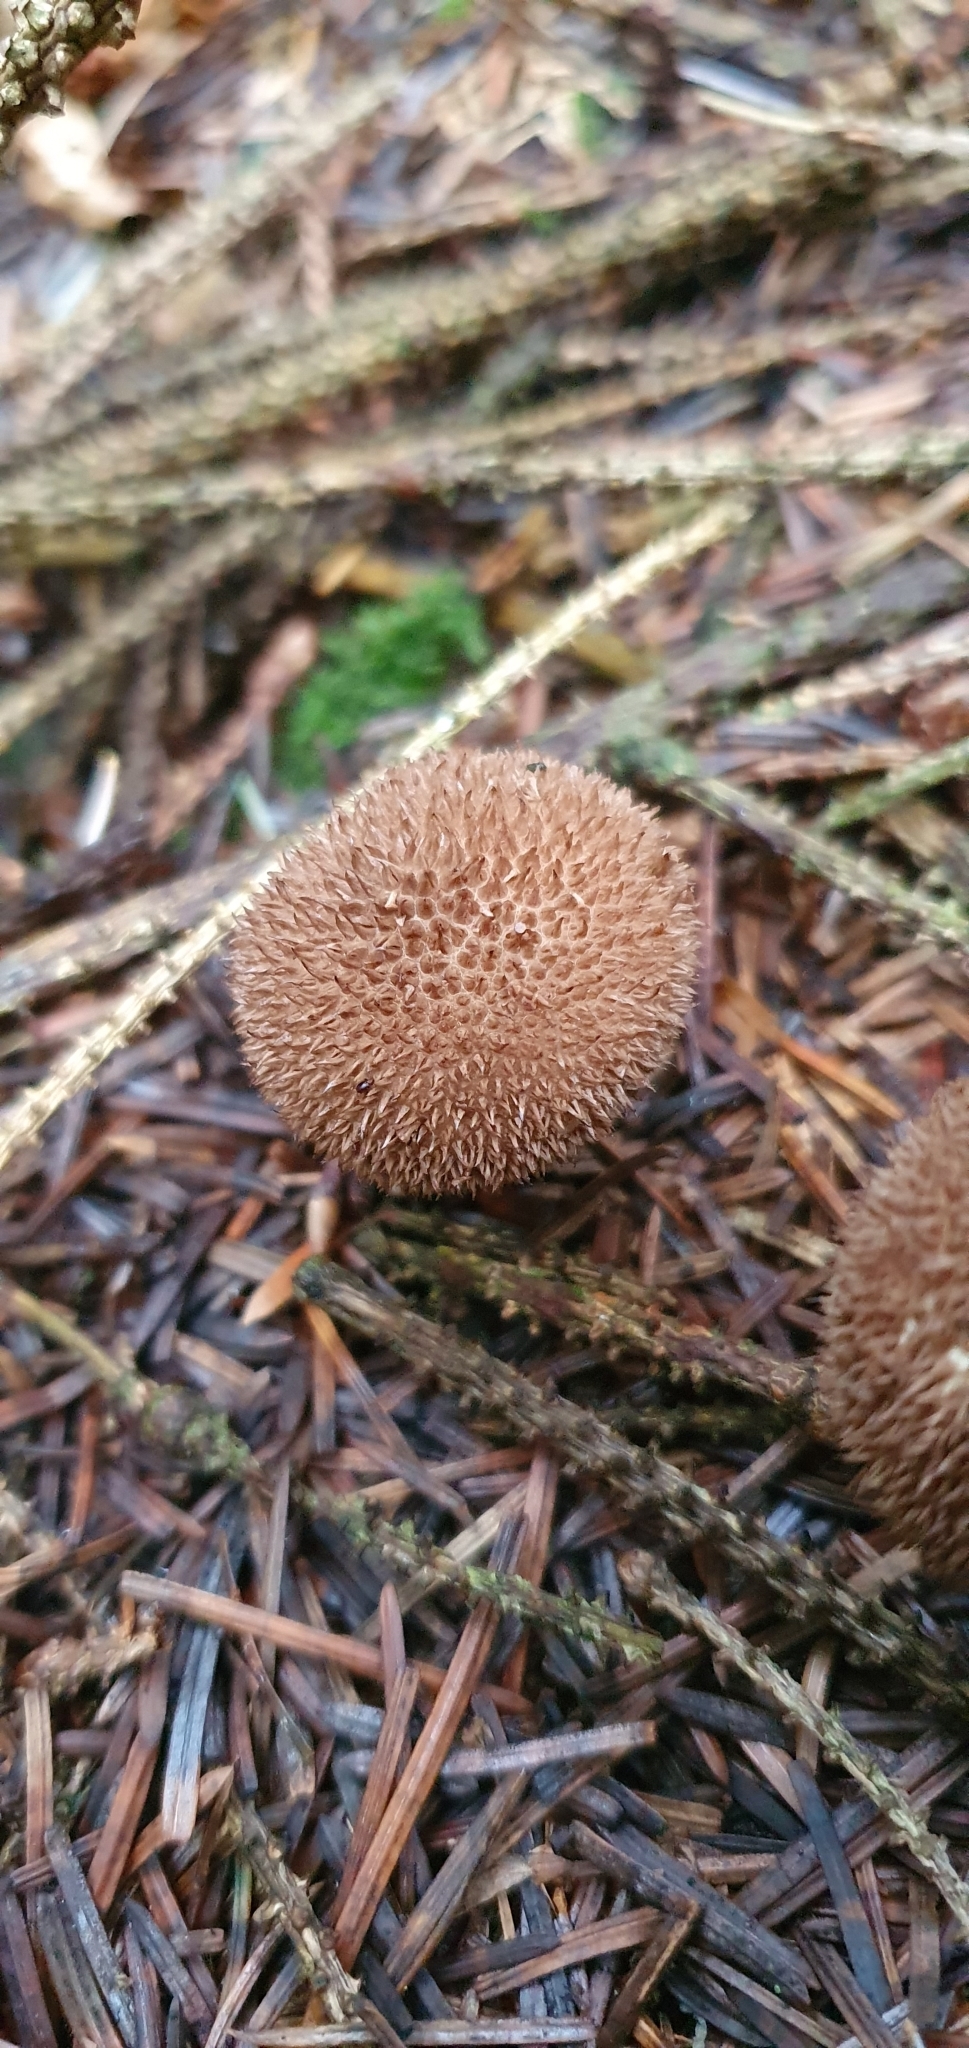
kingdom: Fungi
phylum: Basidiomycota
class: Agaricomycetes
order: Agaricales
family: Lycoperdaceae
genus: Lycoperdon
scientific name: Lycoperdon nigrescens
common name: Blackish puffball
